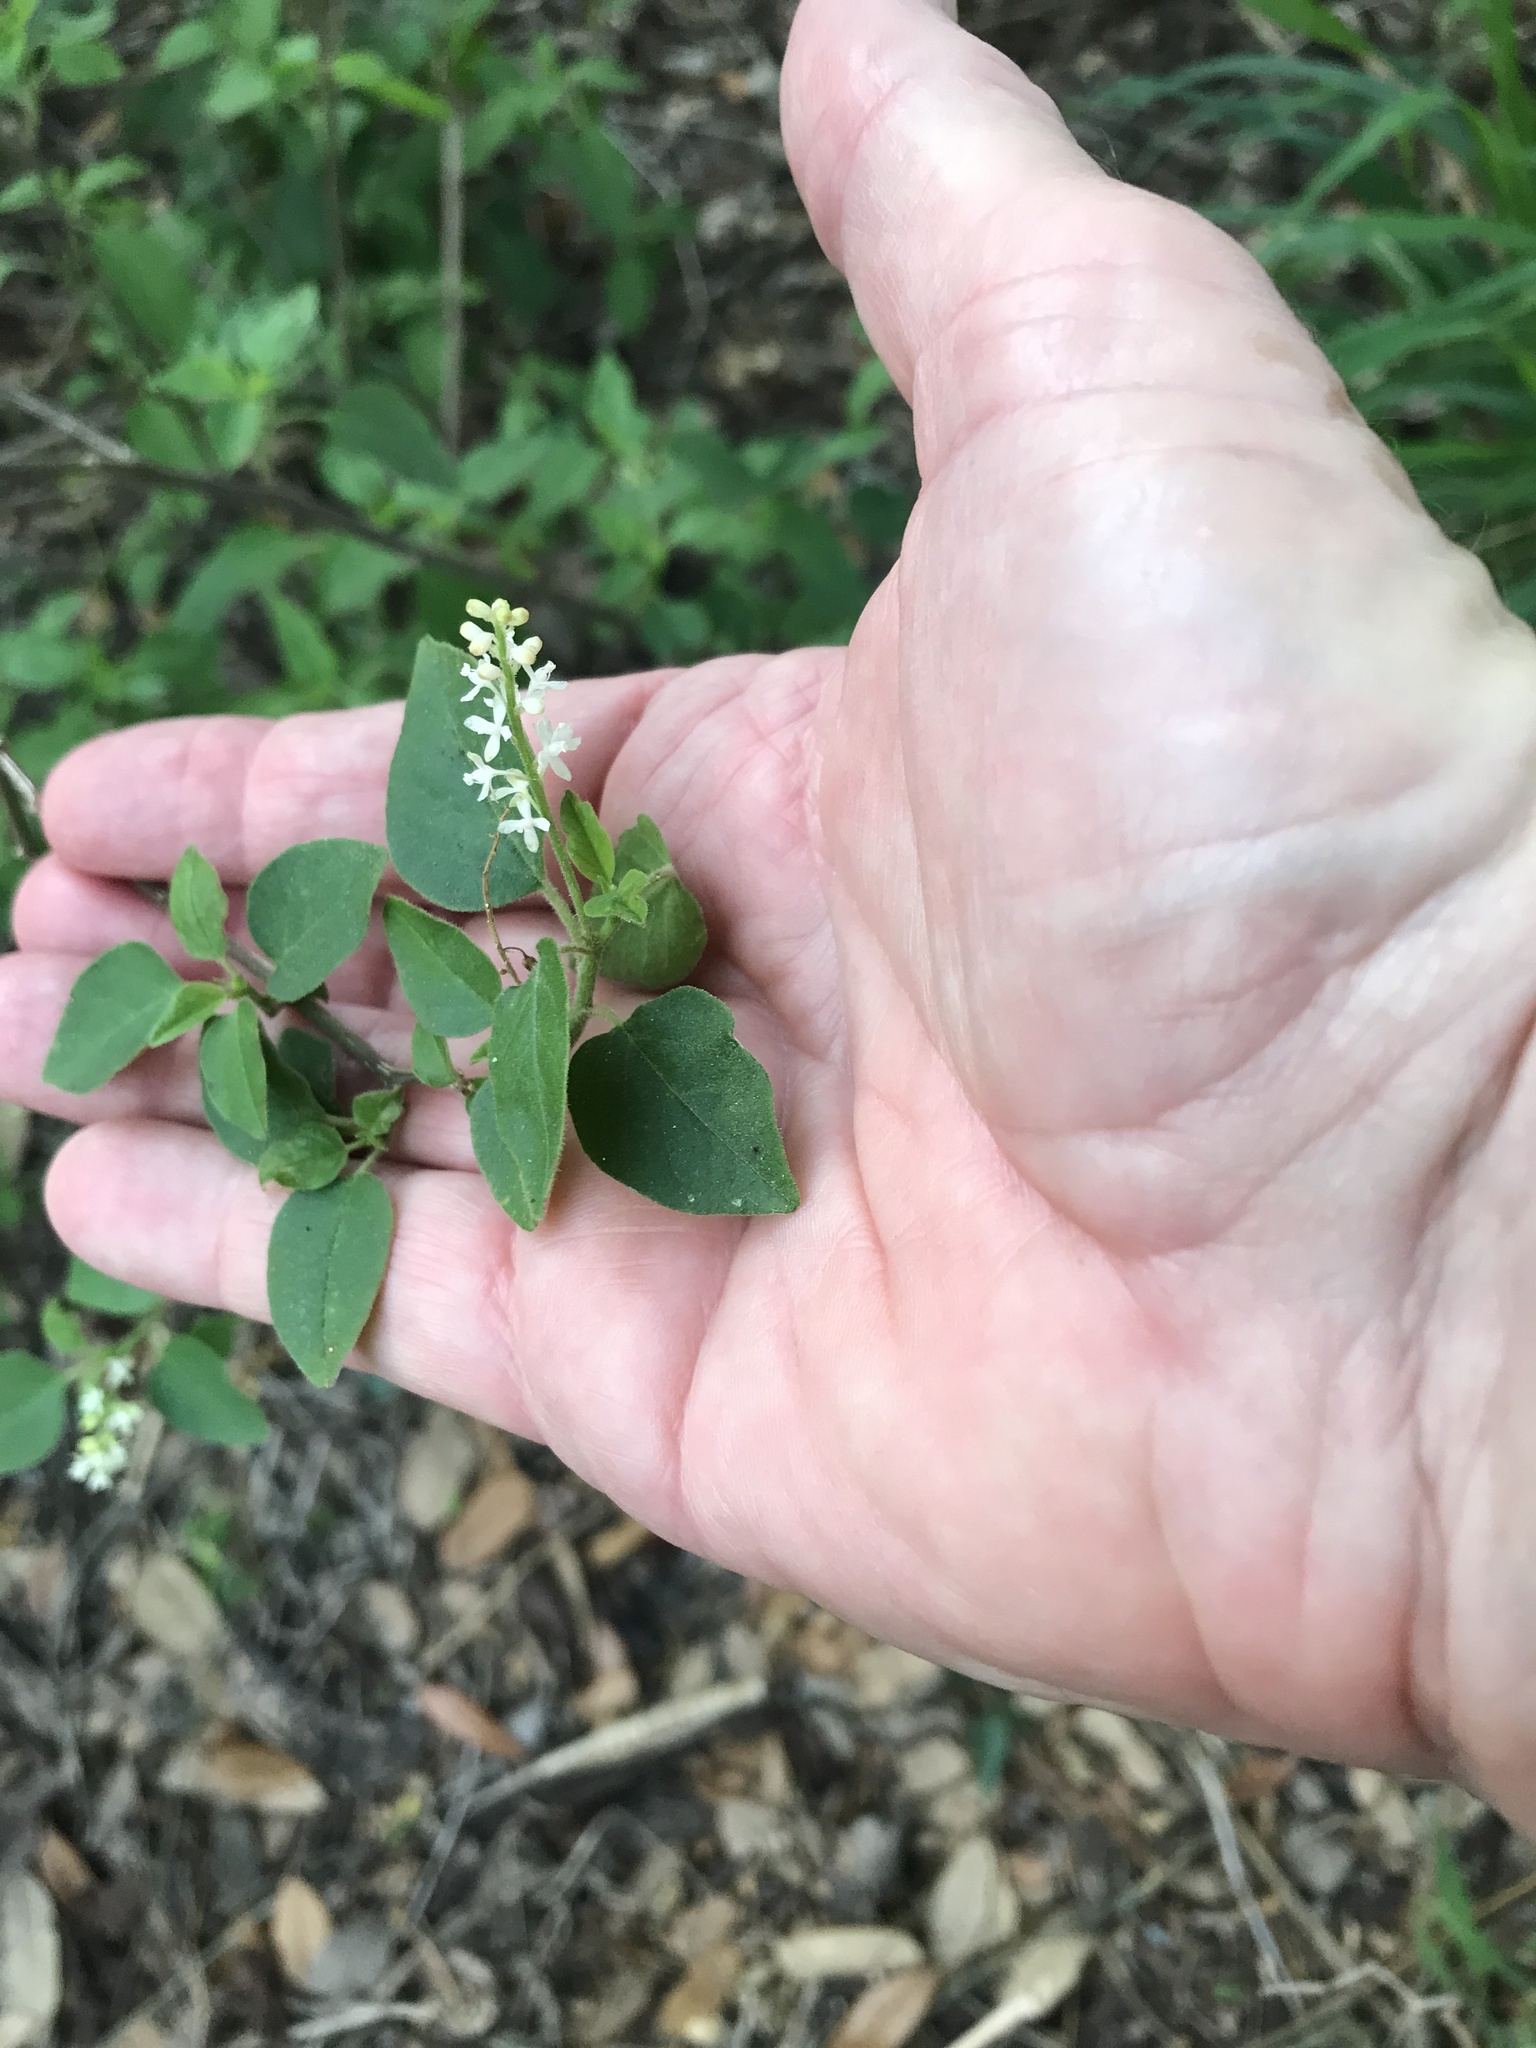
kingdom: Plantae
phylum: Tracheophyta
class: Magnoliopsida
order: Caryophyllales
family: Phytolaccaceae
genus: Rivina
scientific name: Rivina humilis
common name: Rougeplant
